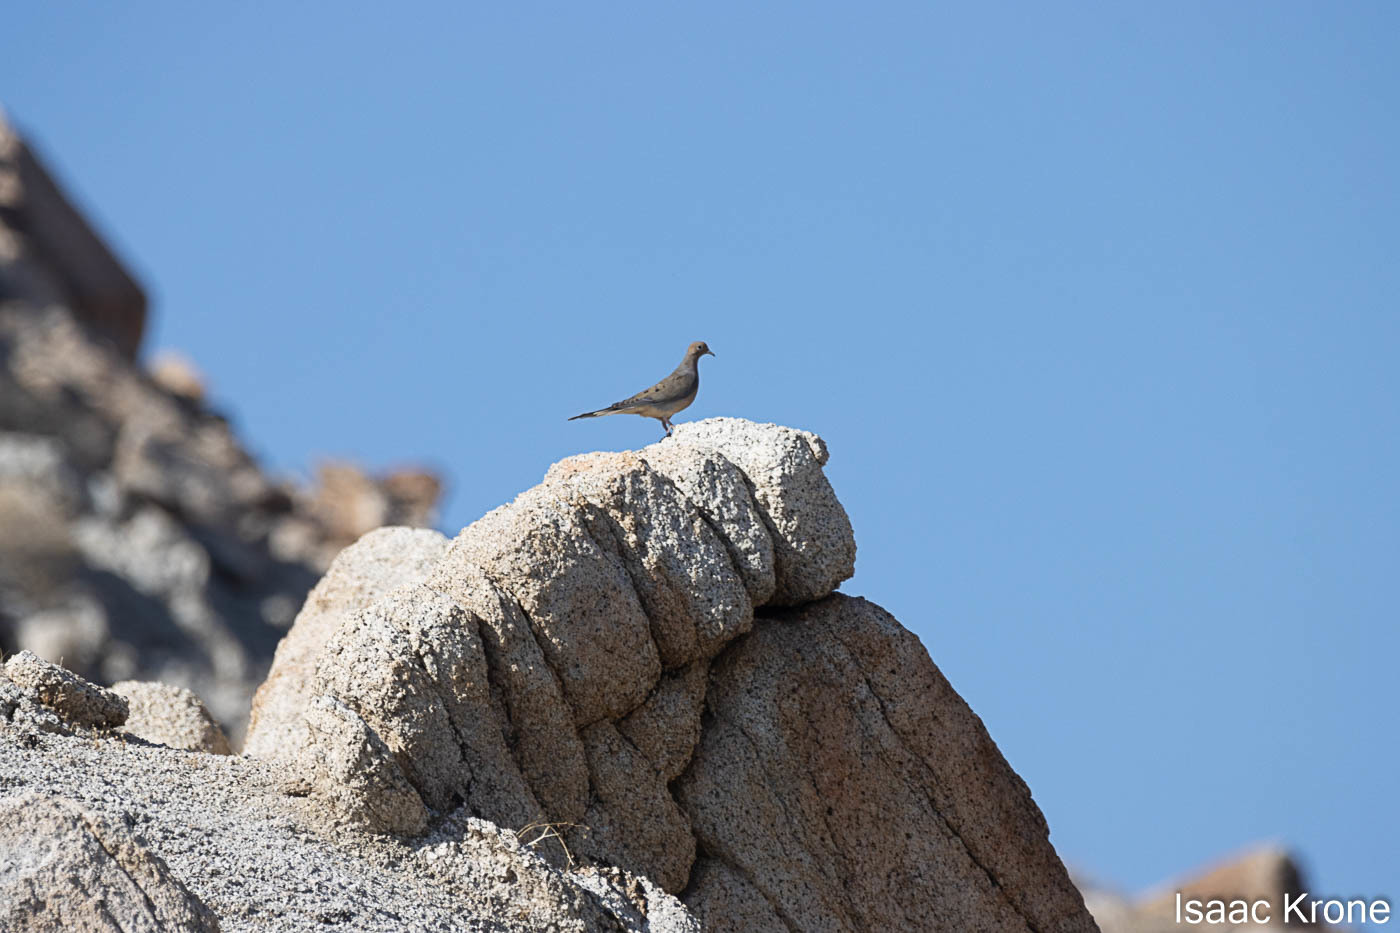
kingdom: Animalia
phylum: Chordata
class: Aves
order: Columbiformes
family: Columbidae
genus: Zenaida
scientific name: Zenaida macroura
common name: Mourning dove
